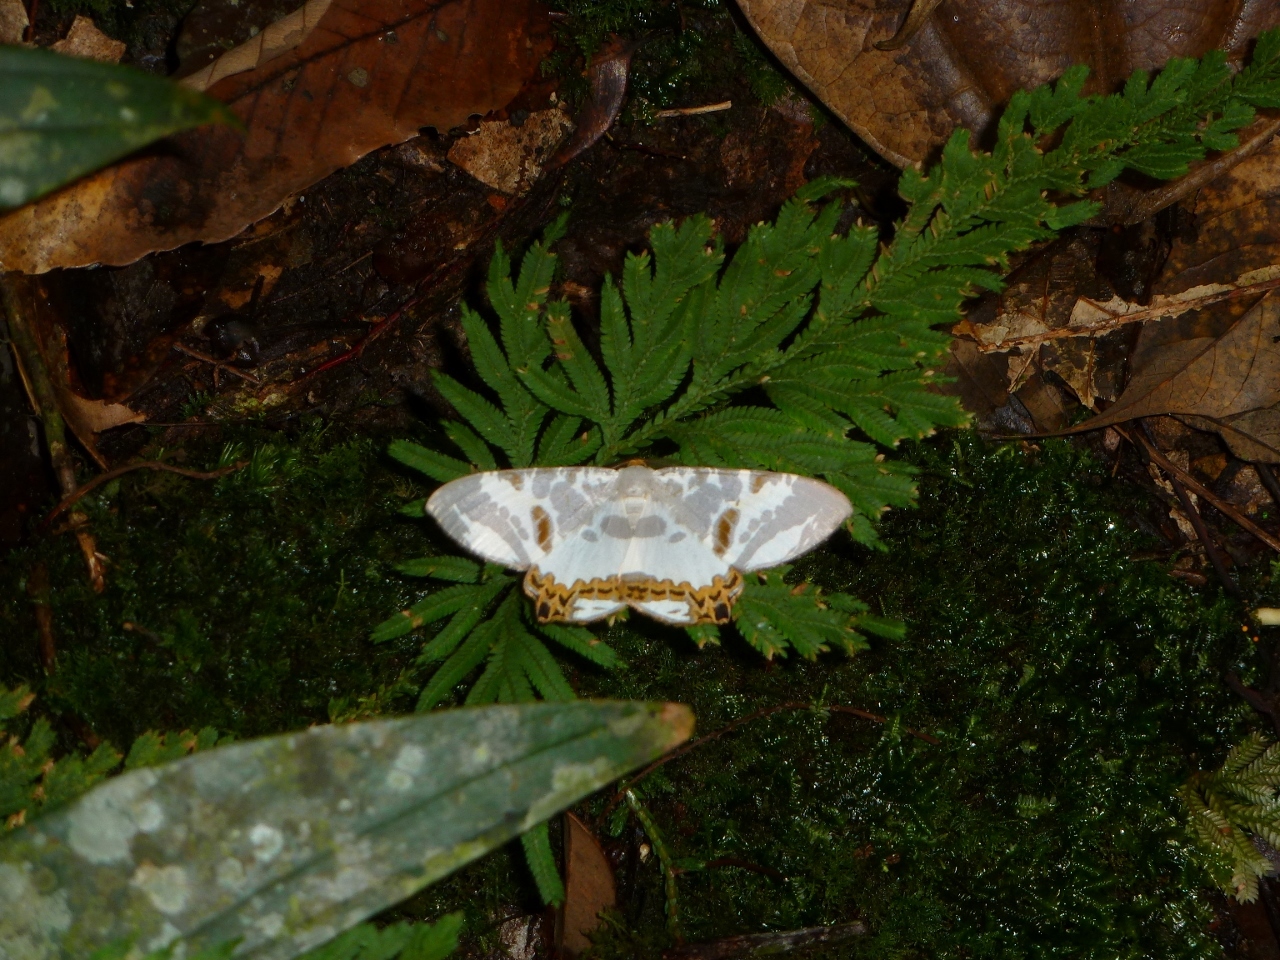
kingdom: Animalia
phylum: Arthropoda
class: Insecta
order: Lepidoptera
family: Geometridae
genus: Dalima
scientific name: Dalima metachromata
